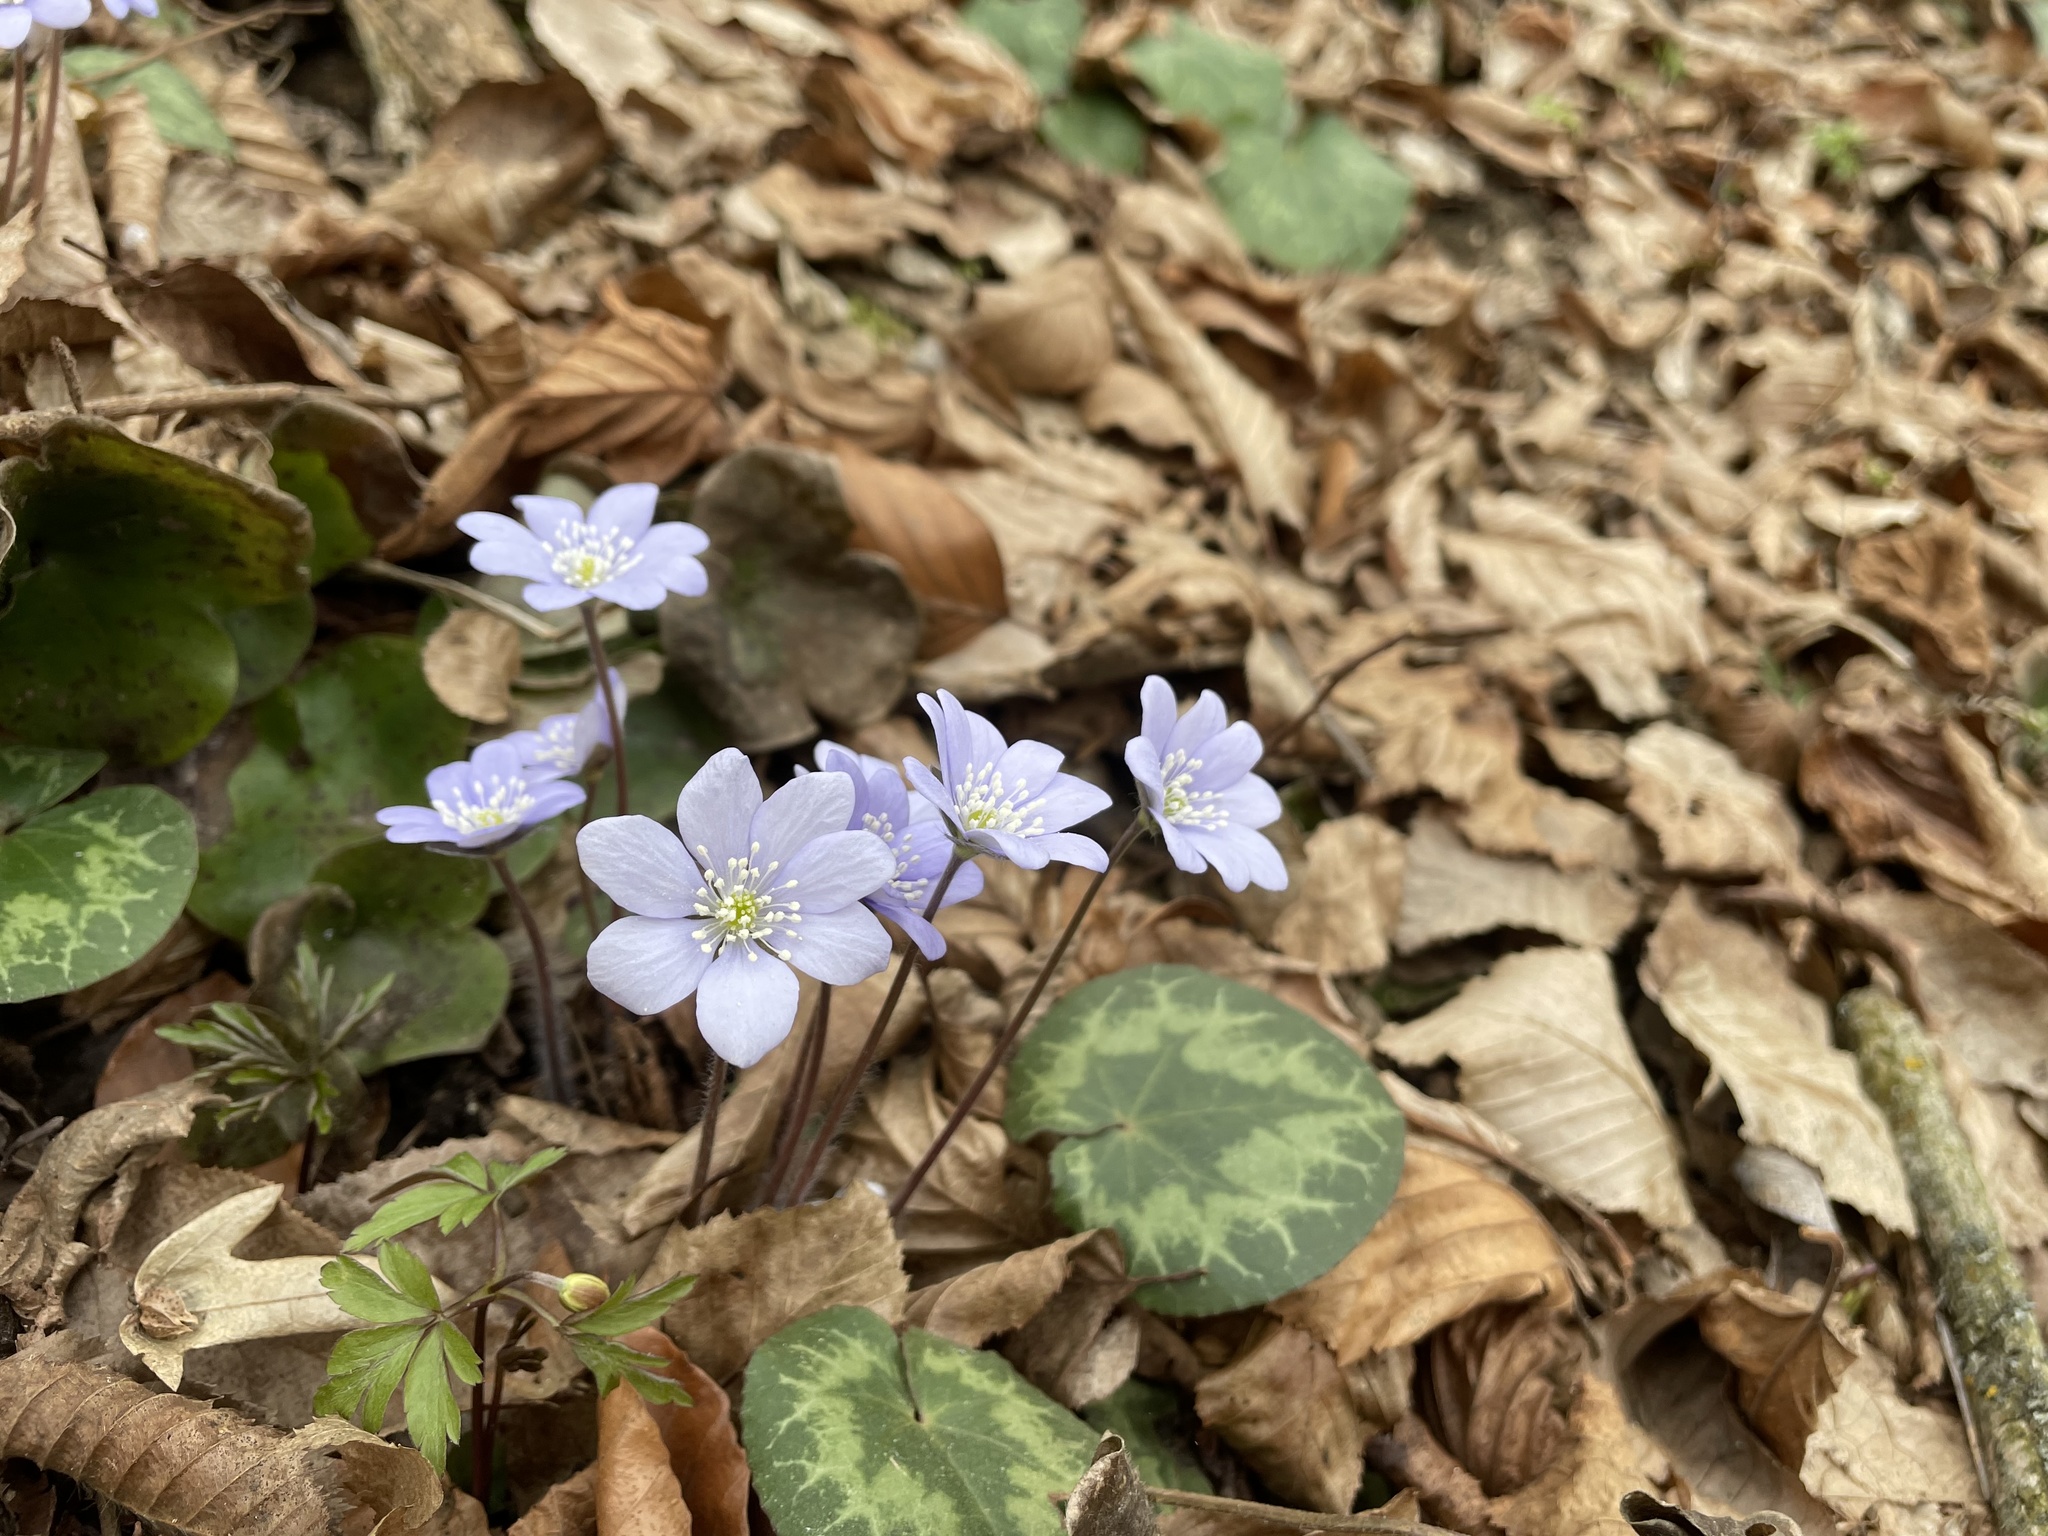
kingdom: Plantae
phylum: Tracheophyta
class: Magnoliopsida
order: Ranunculales
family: Ranunculaceae
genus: Hepatica
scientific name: Hepatica nobilis
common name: Liverleaf
